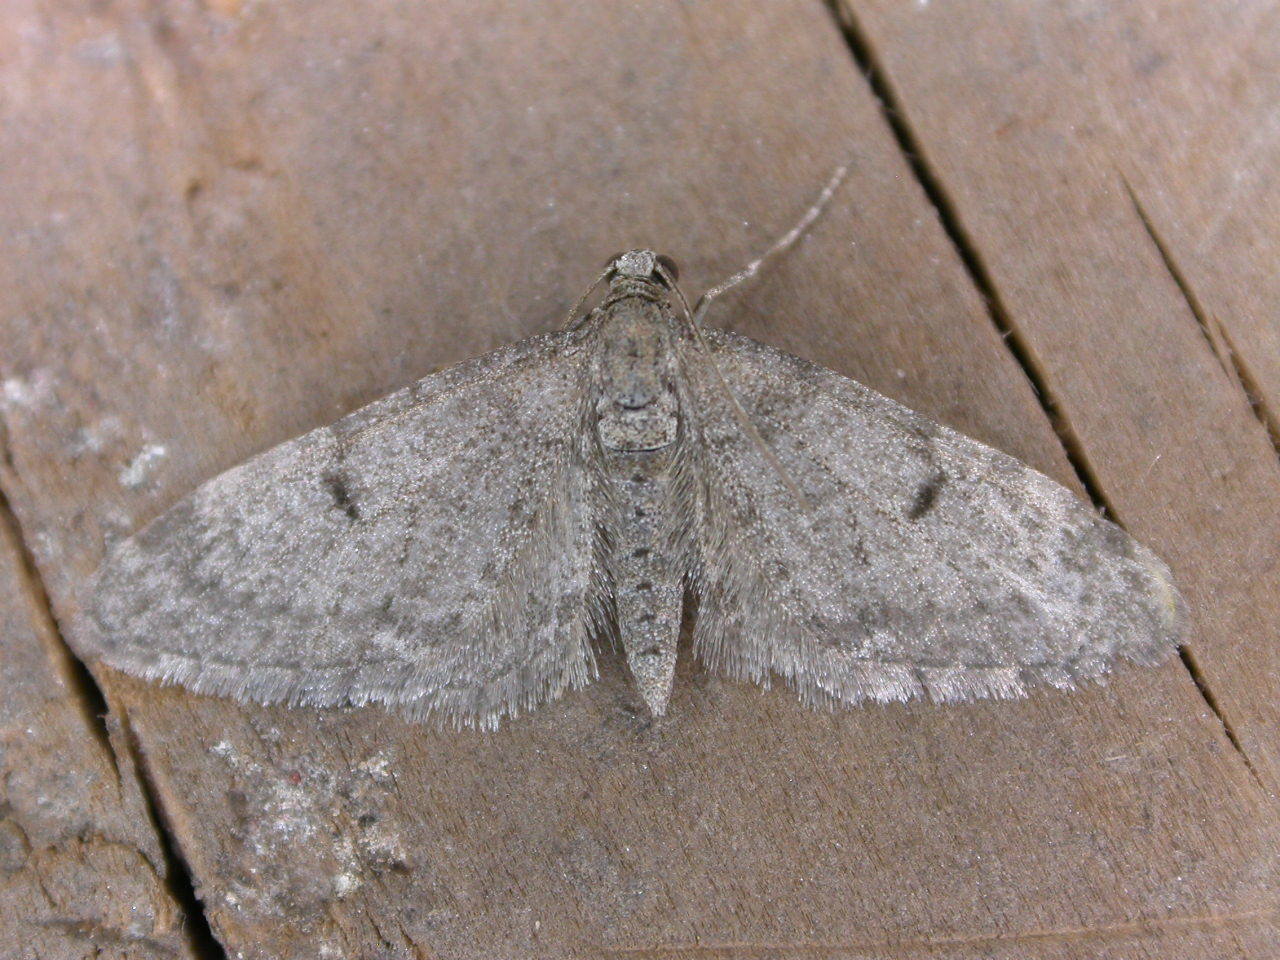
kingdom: Animalia
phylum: Arthropoda
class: Insecta
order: Lepidoptera
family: Geometridae
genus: Eupithecia
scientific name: Eupithecia indigata
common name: Ochreous pug
